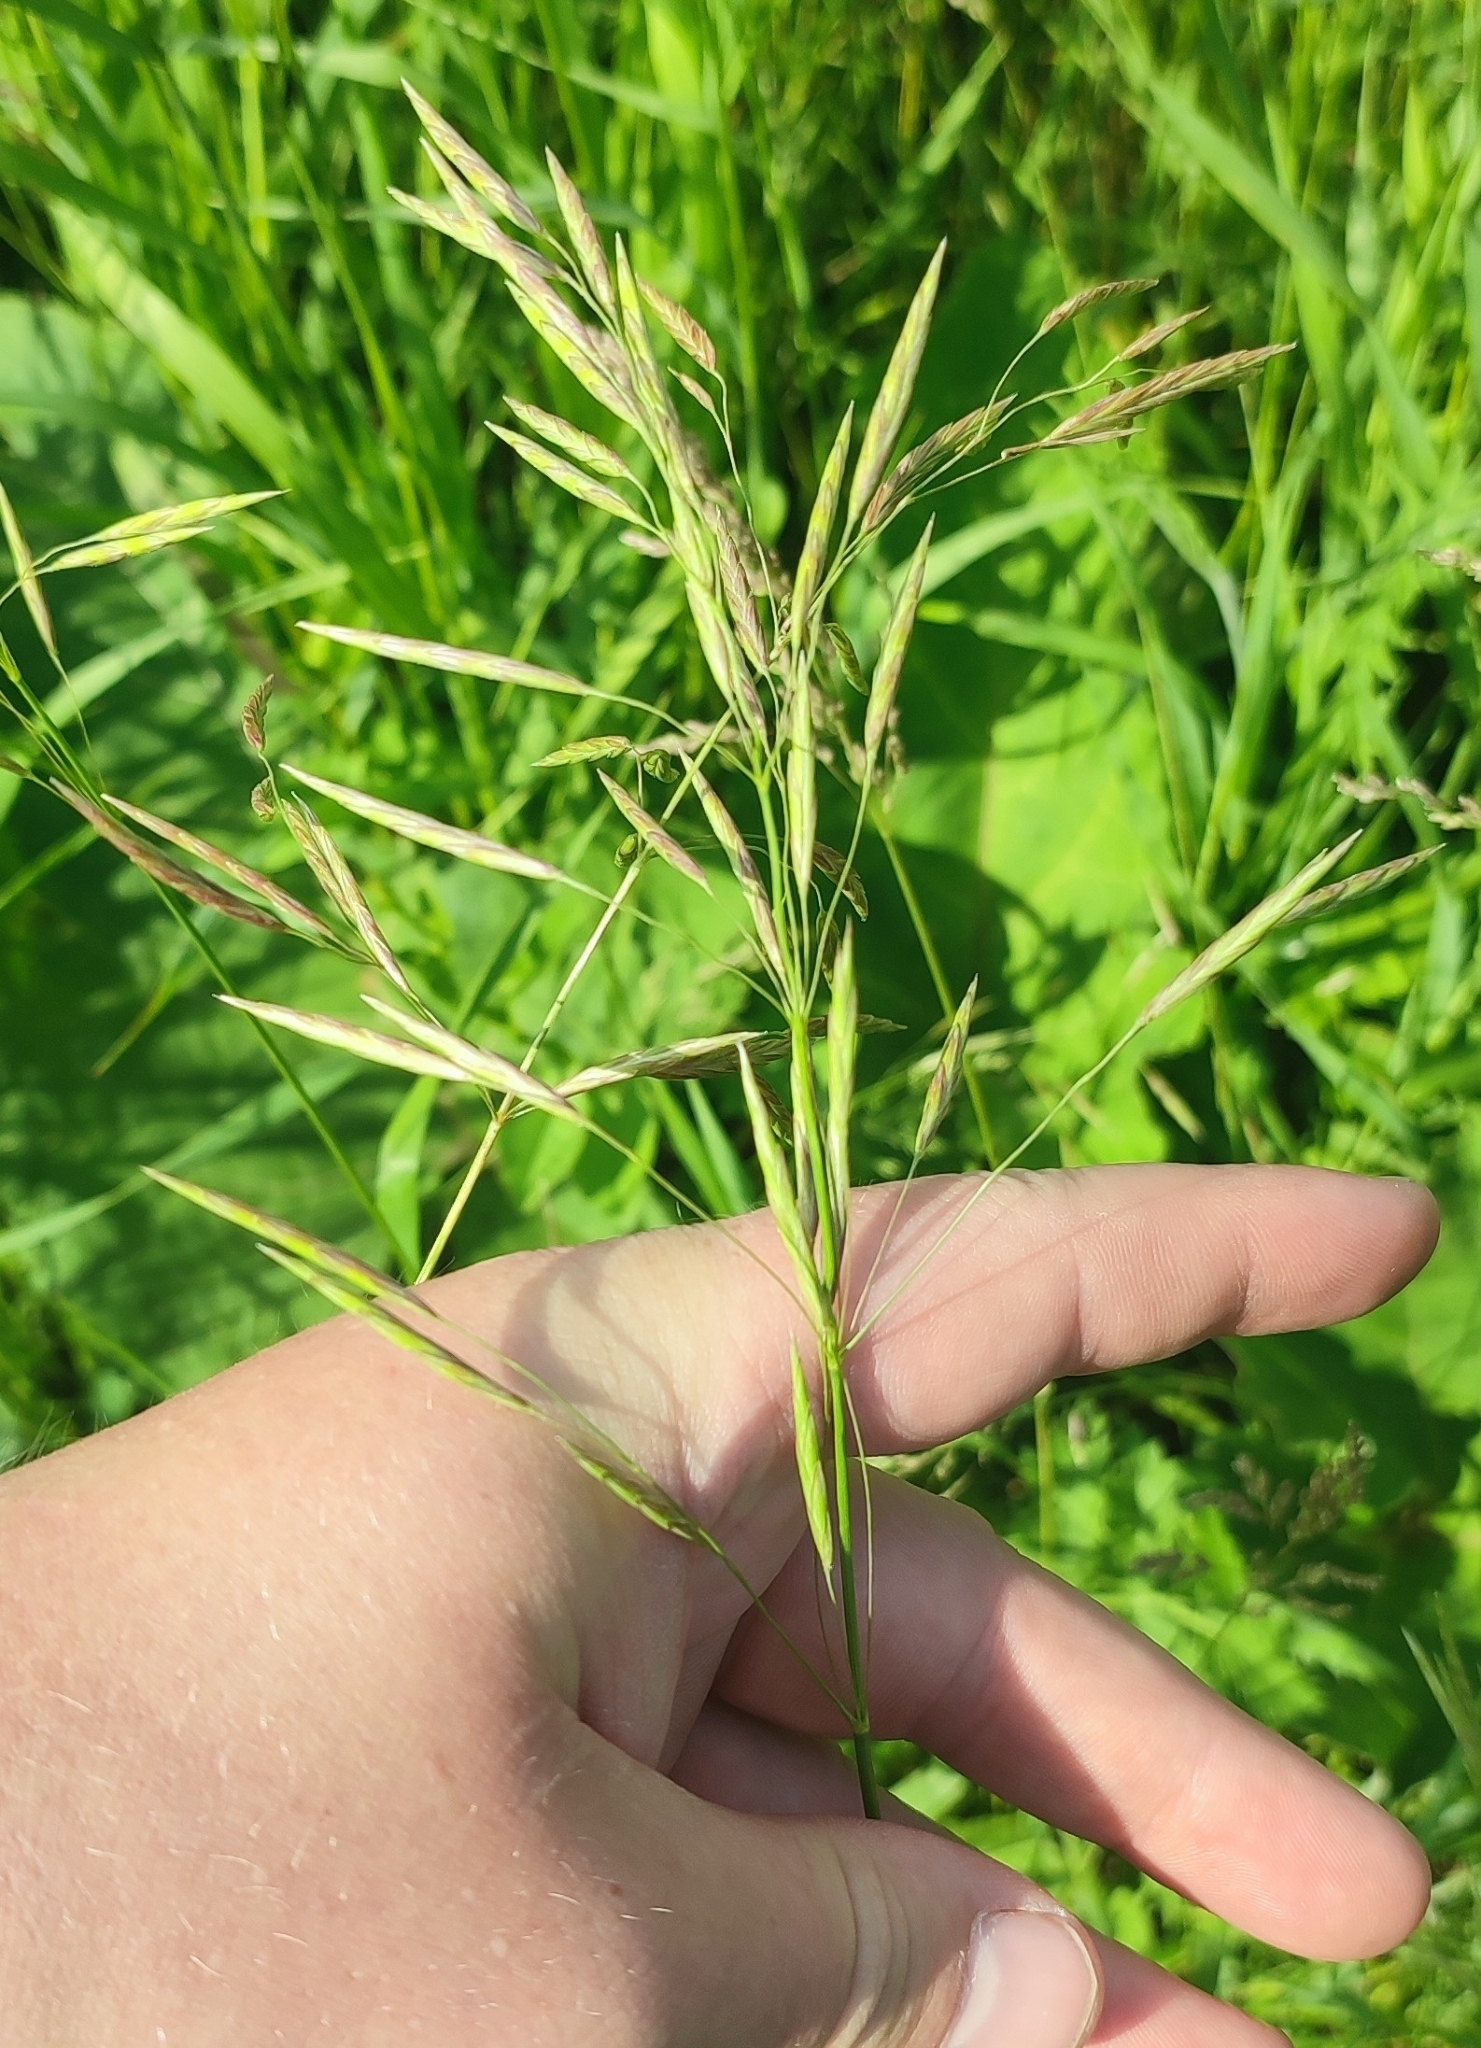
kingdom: Plantae
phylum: Tracheophyta
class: Liliopsida
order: Poales
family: Poaceae
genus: Bromus
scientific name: Bromus inermis
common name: Smooth brome
